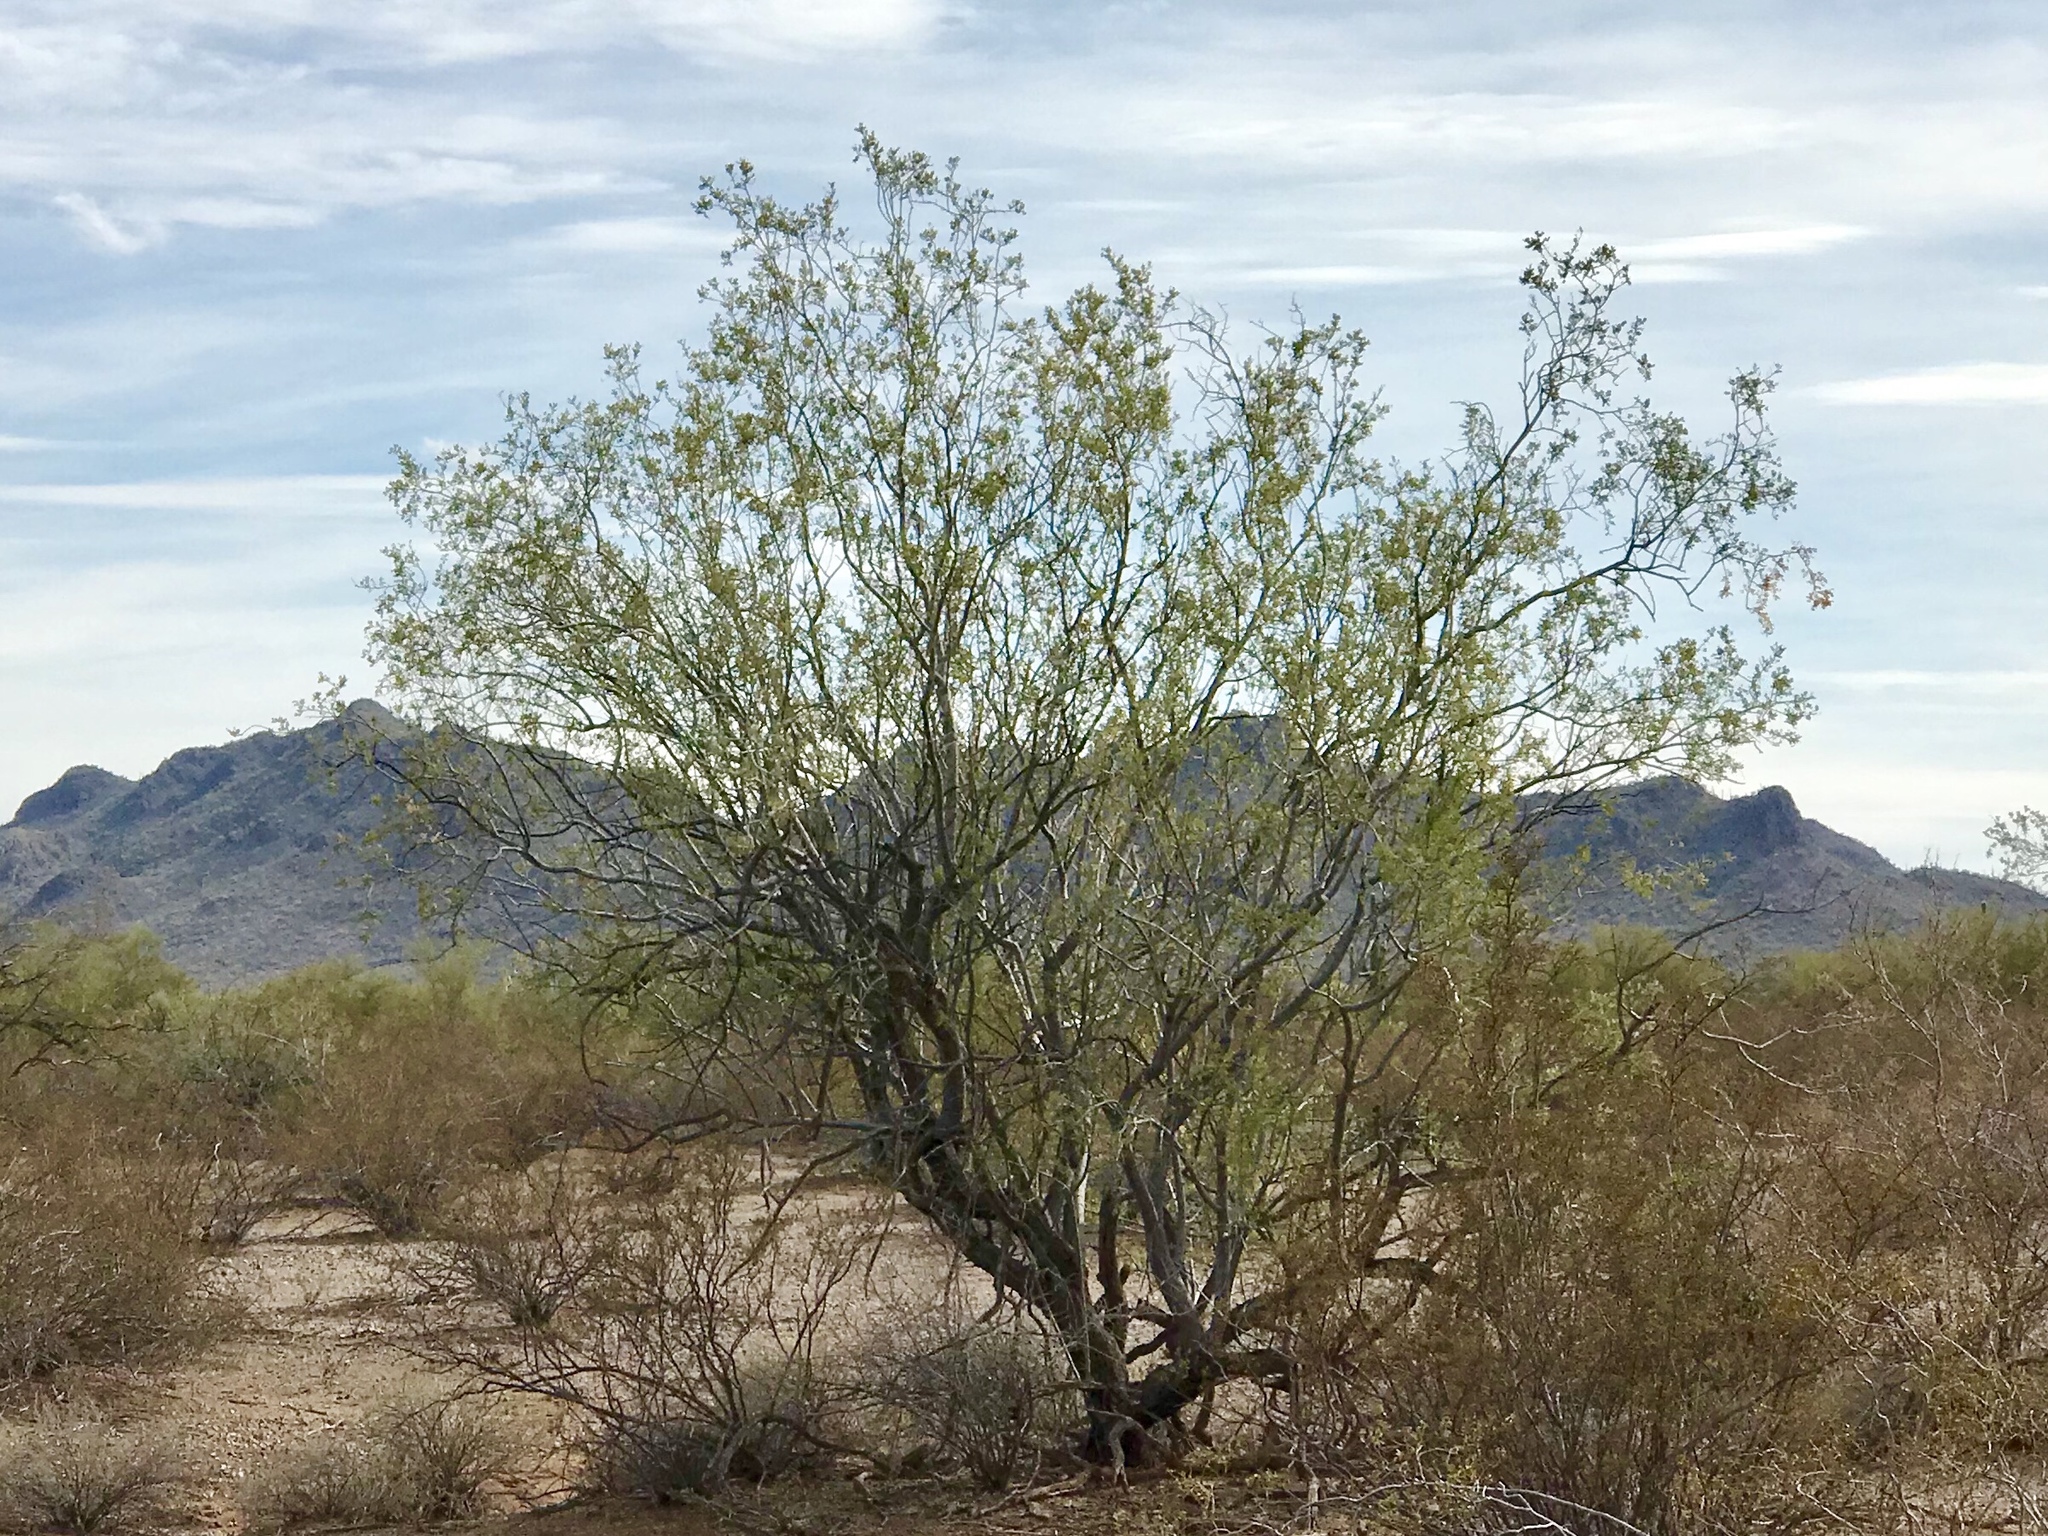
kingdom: Plantae
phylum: Tracheophyta
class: Magnoliopsida
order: Fabales
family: Fabaceae
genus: Olneya
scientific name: Olneya tesota
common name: Desert ironwood
